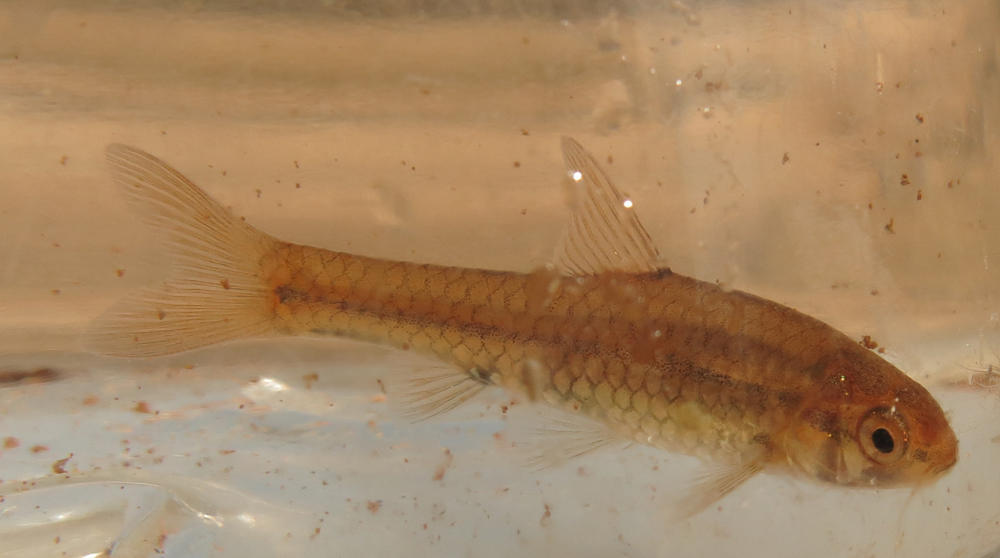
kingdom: Animalia
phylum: Chordata
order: Cypriniformes
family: Cyprinidae
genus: Enteromius
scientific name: Enteromius viviparus
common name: Bowstripe barb
